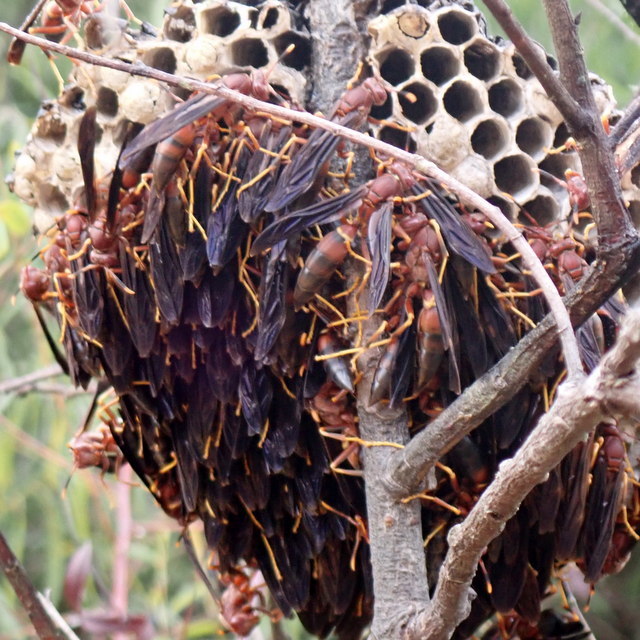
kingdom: Animalia
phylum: Arthropoda
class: Insecta
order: Hymenoptera
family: Eumenidae
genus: Polistes
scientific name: Polistes annularis
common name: Ringed paper wasp
